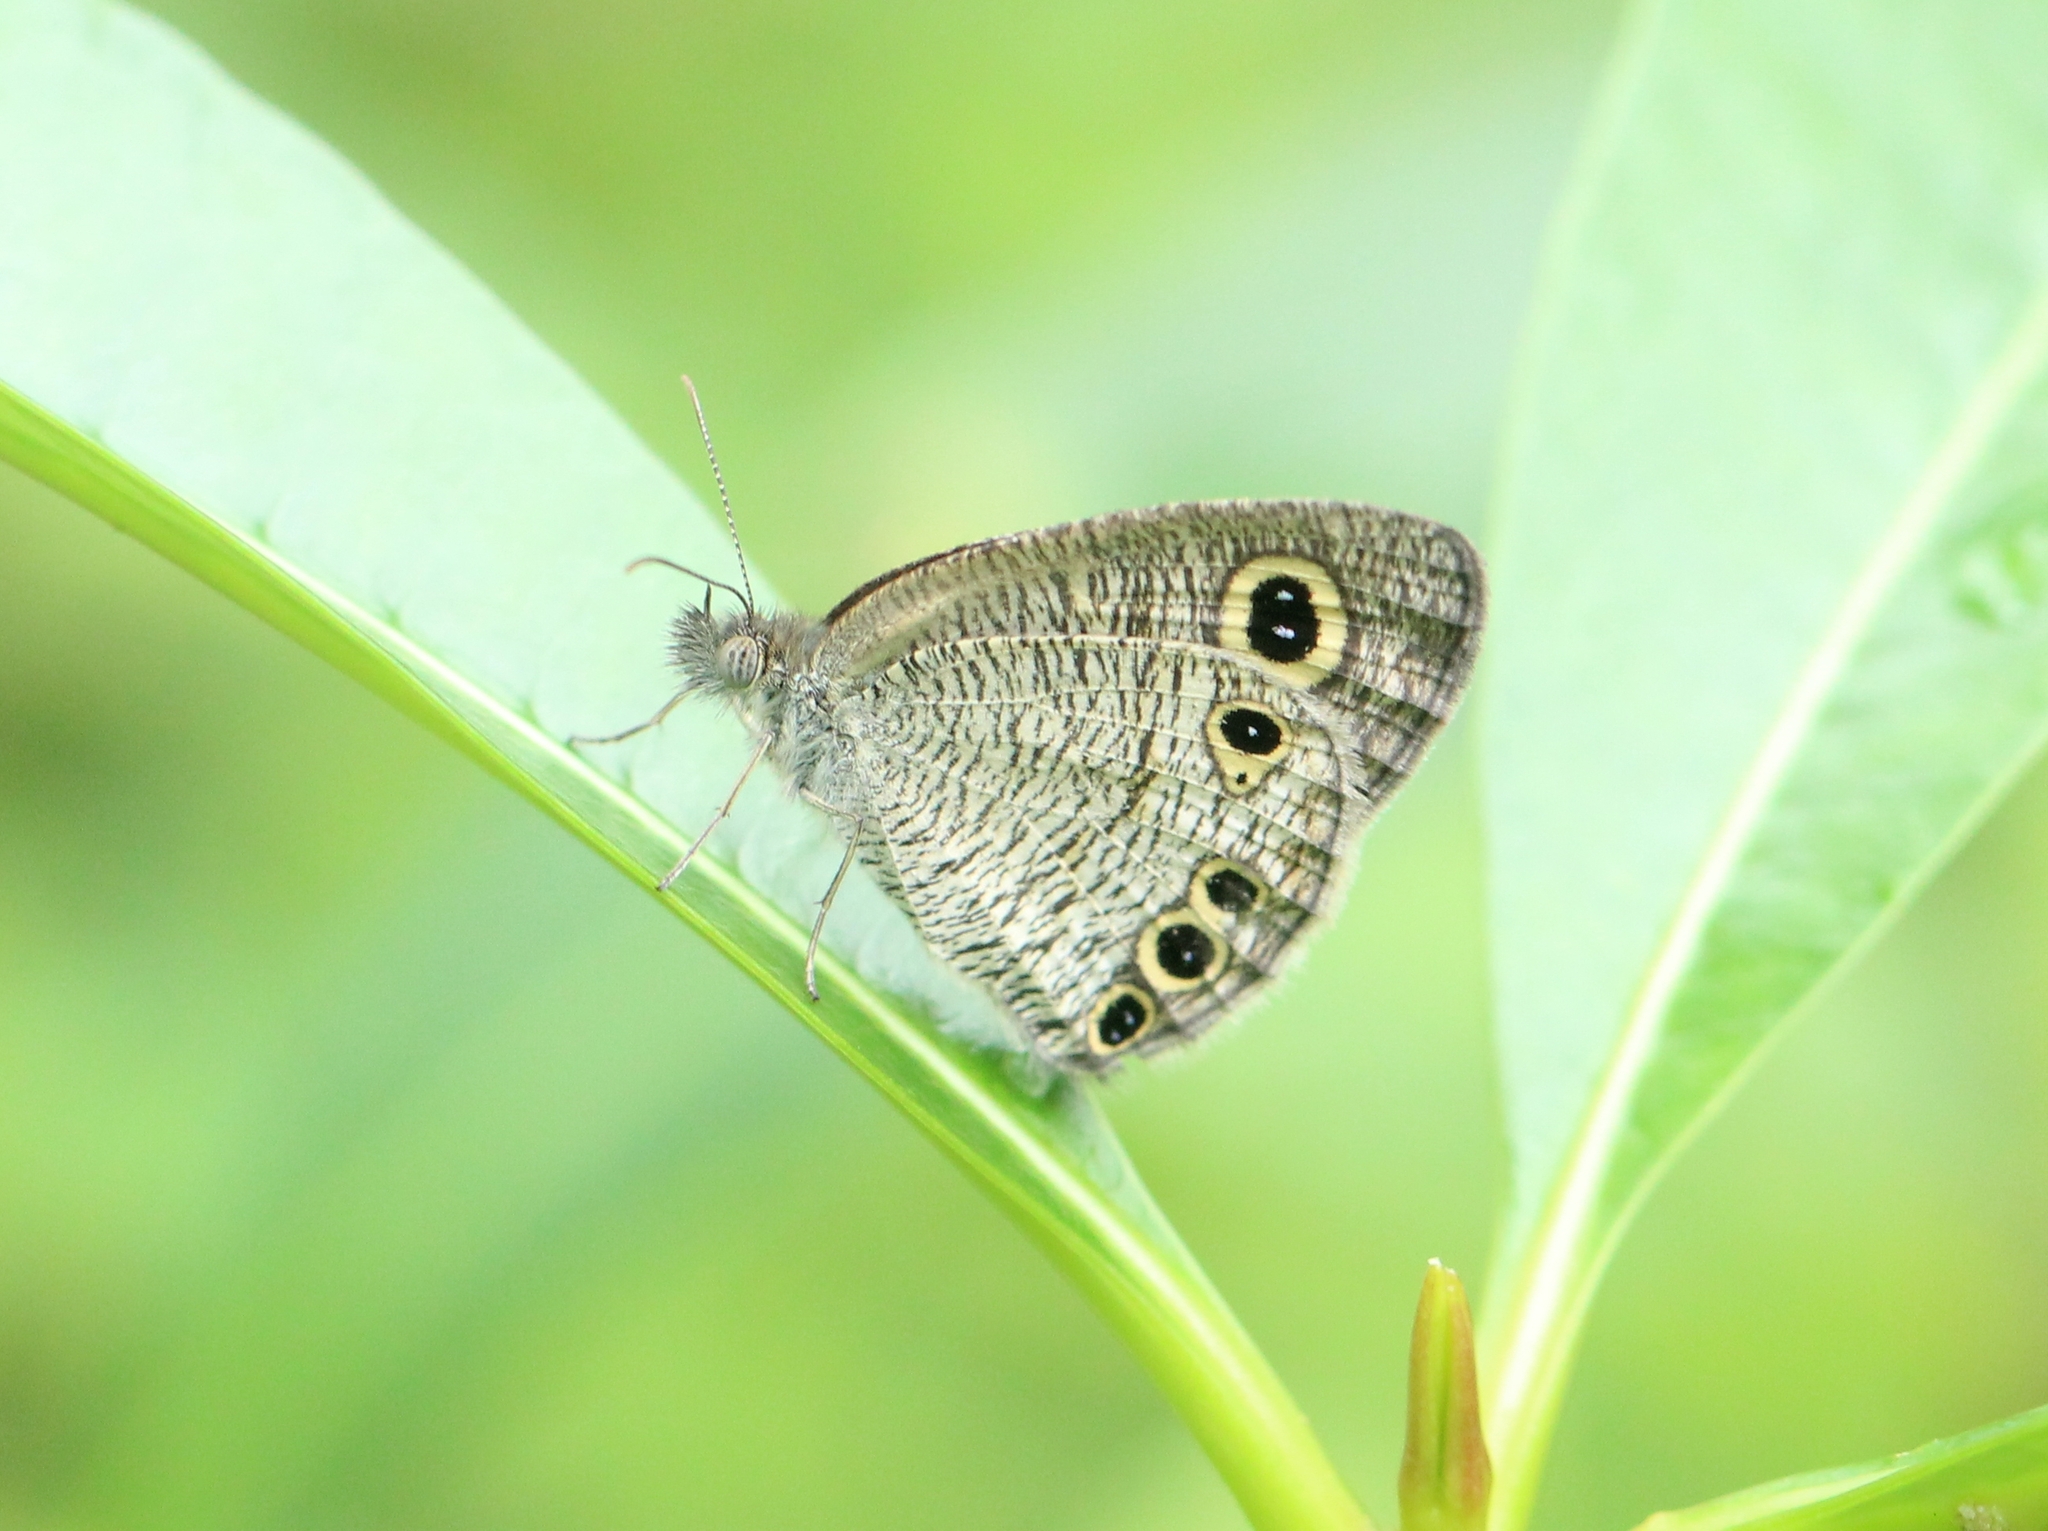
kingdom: Animalia
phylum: Arthropoda
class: Insecta
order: Lepidoptera
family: Nymphalidae
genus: Ypthima
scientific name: Ypthima huebneri
